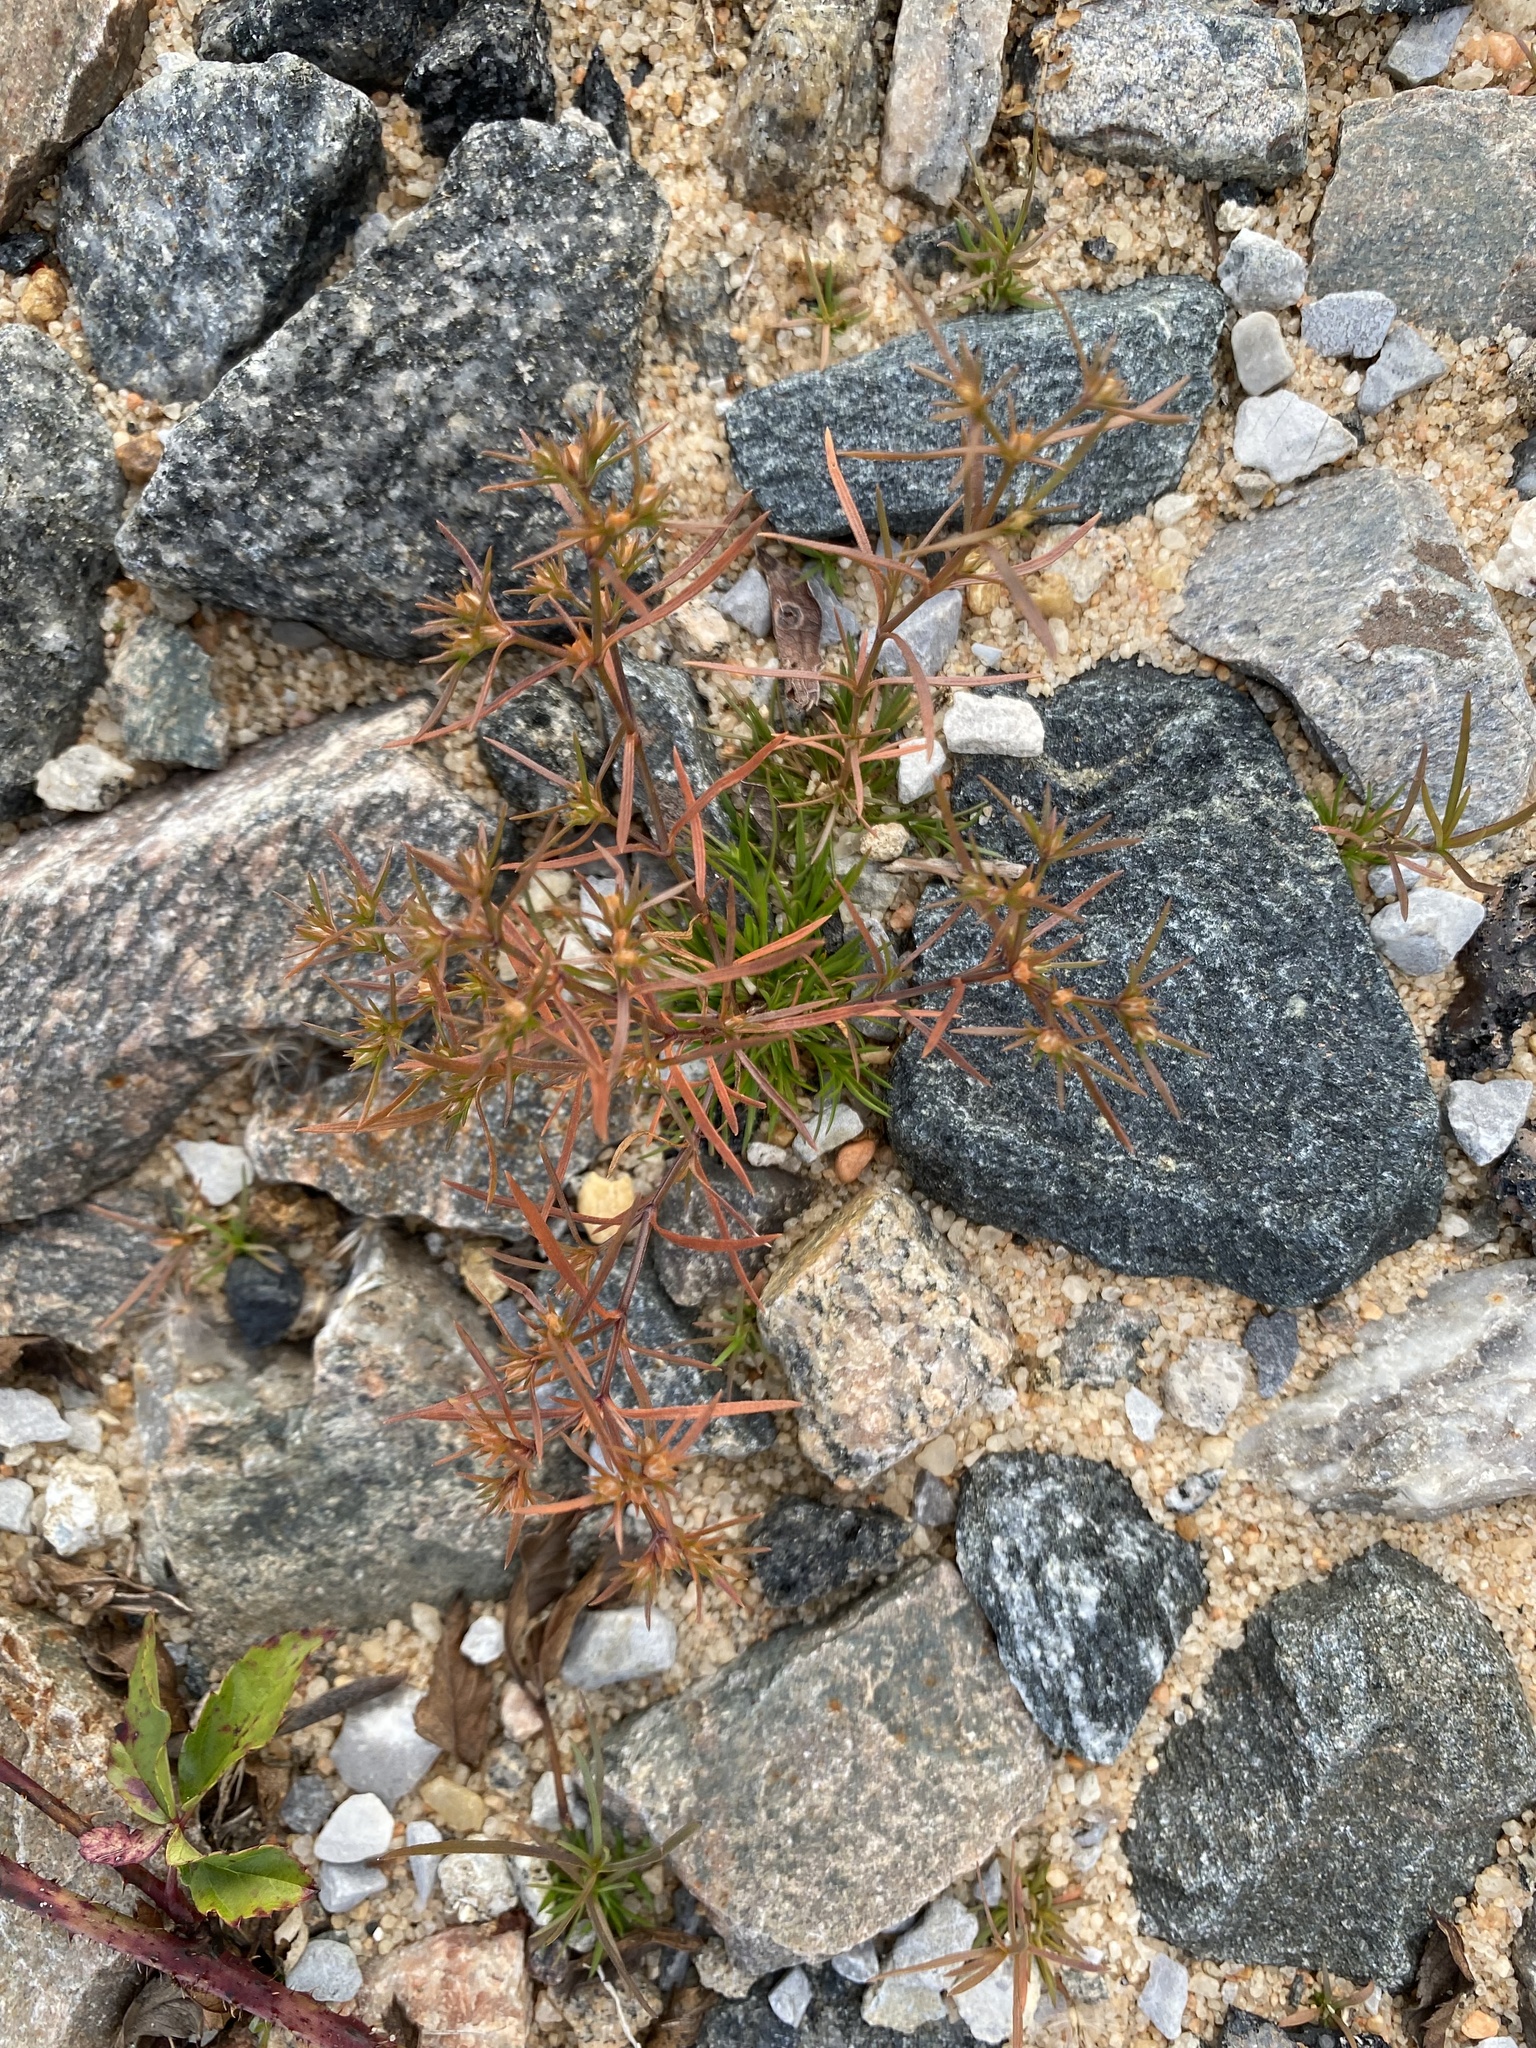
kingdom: Plantae
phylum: Tracheophyta
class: Magnoliopsida
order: Lamiales
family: Tetrachondraceae
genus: Polypremum
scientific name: Polypremum procumbens
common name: Juniper-leaf
